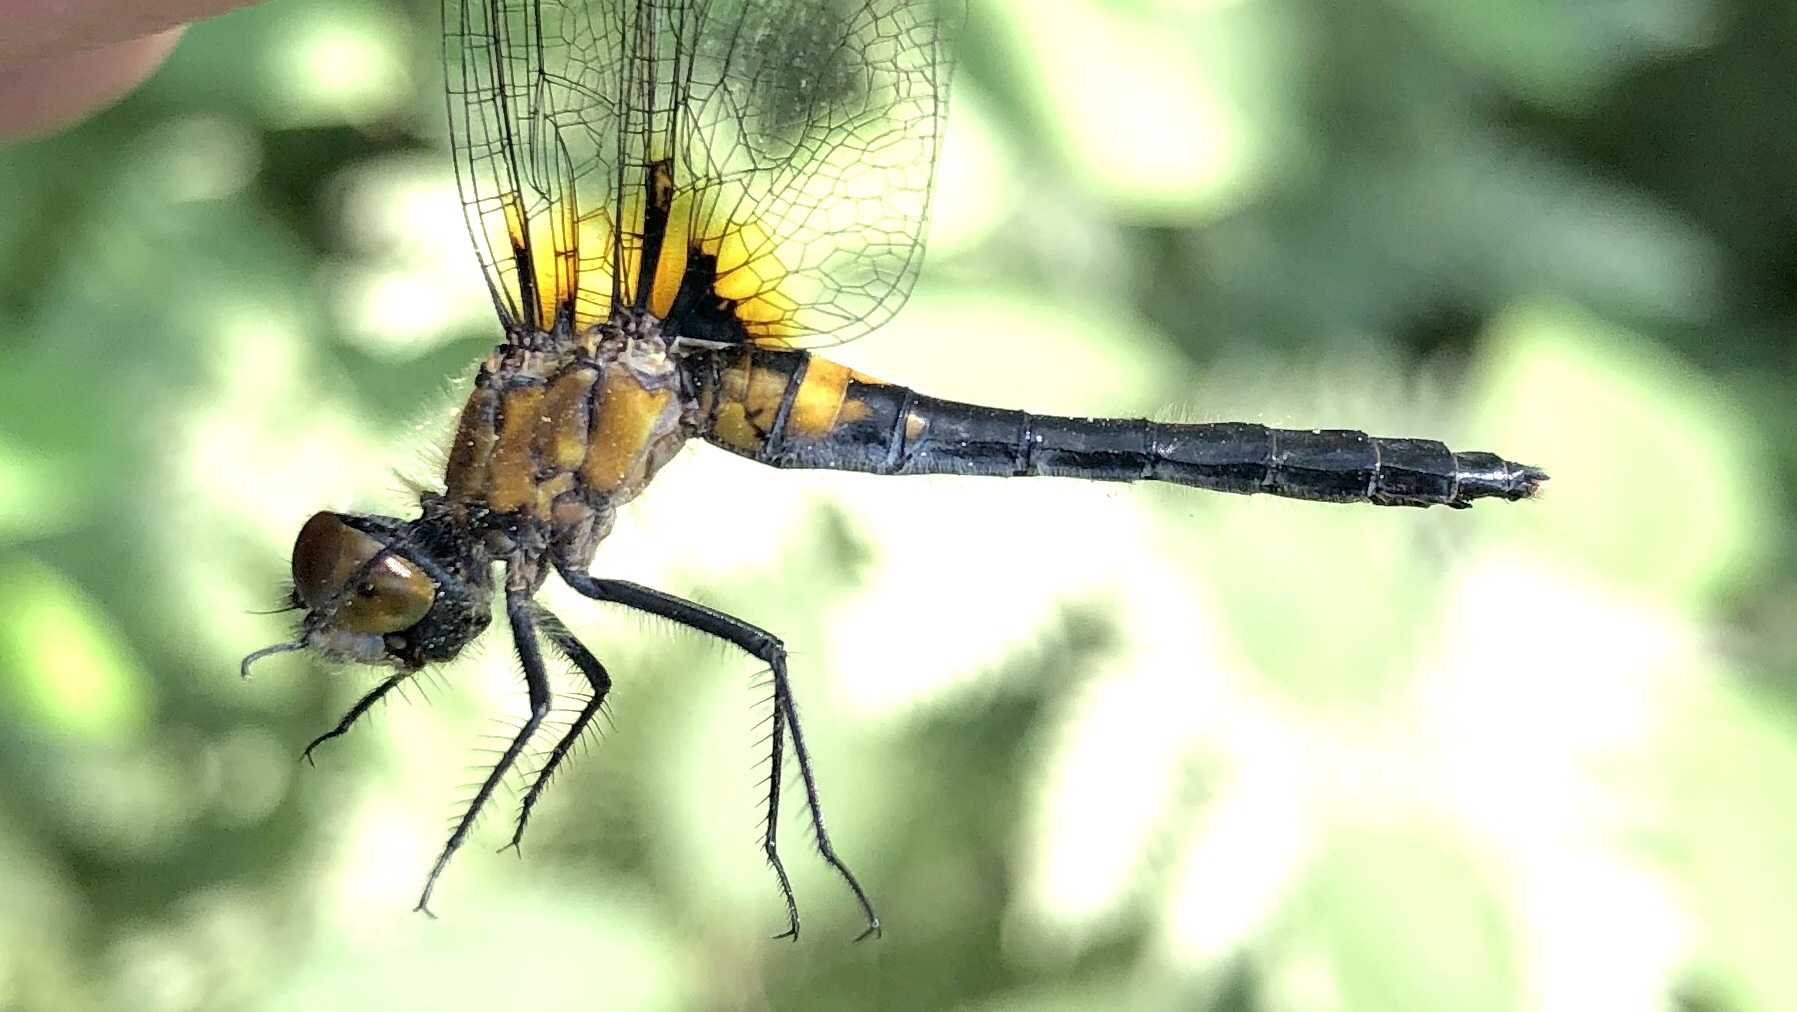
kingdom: Animalia
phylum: Arthropoda
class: Insecta
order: Odonata
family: Libellulidae
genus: Leucorrhinia
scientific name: Leucorrhinia frigida
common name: Frosted whiteface
